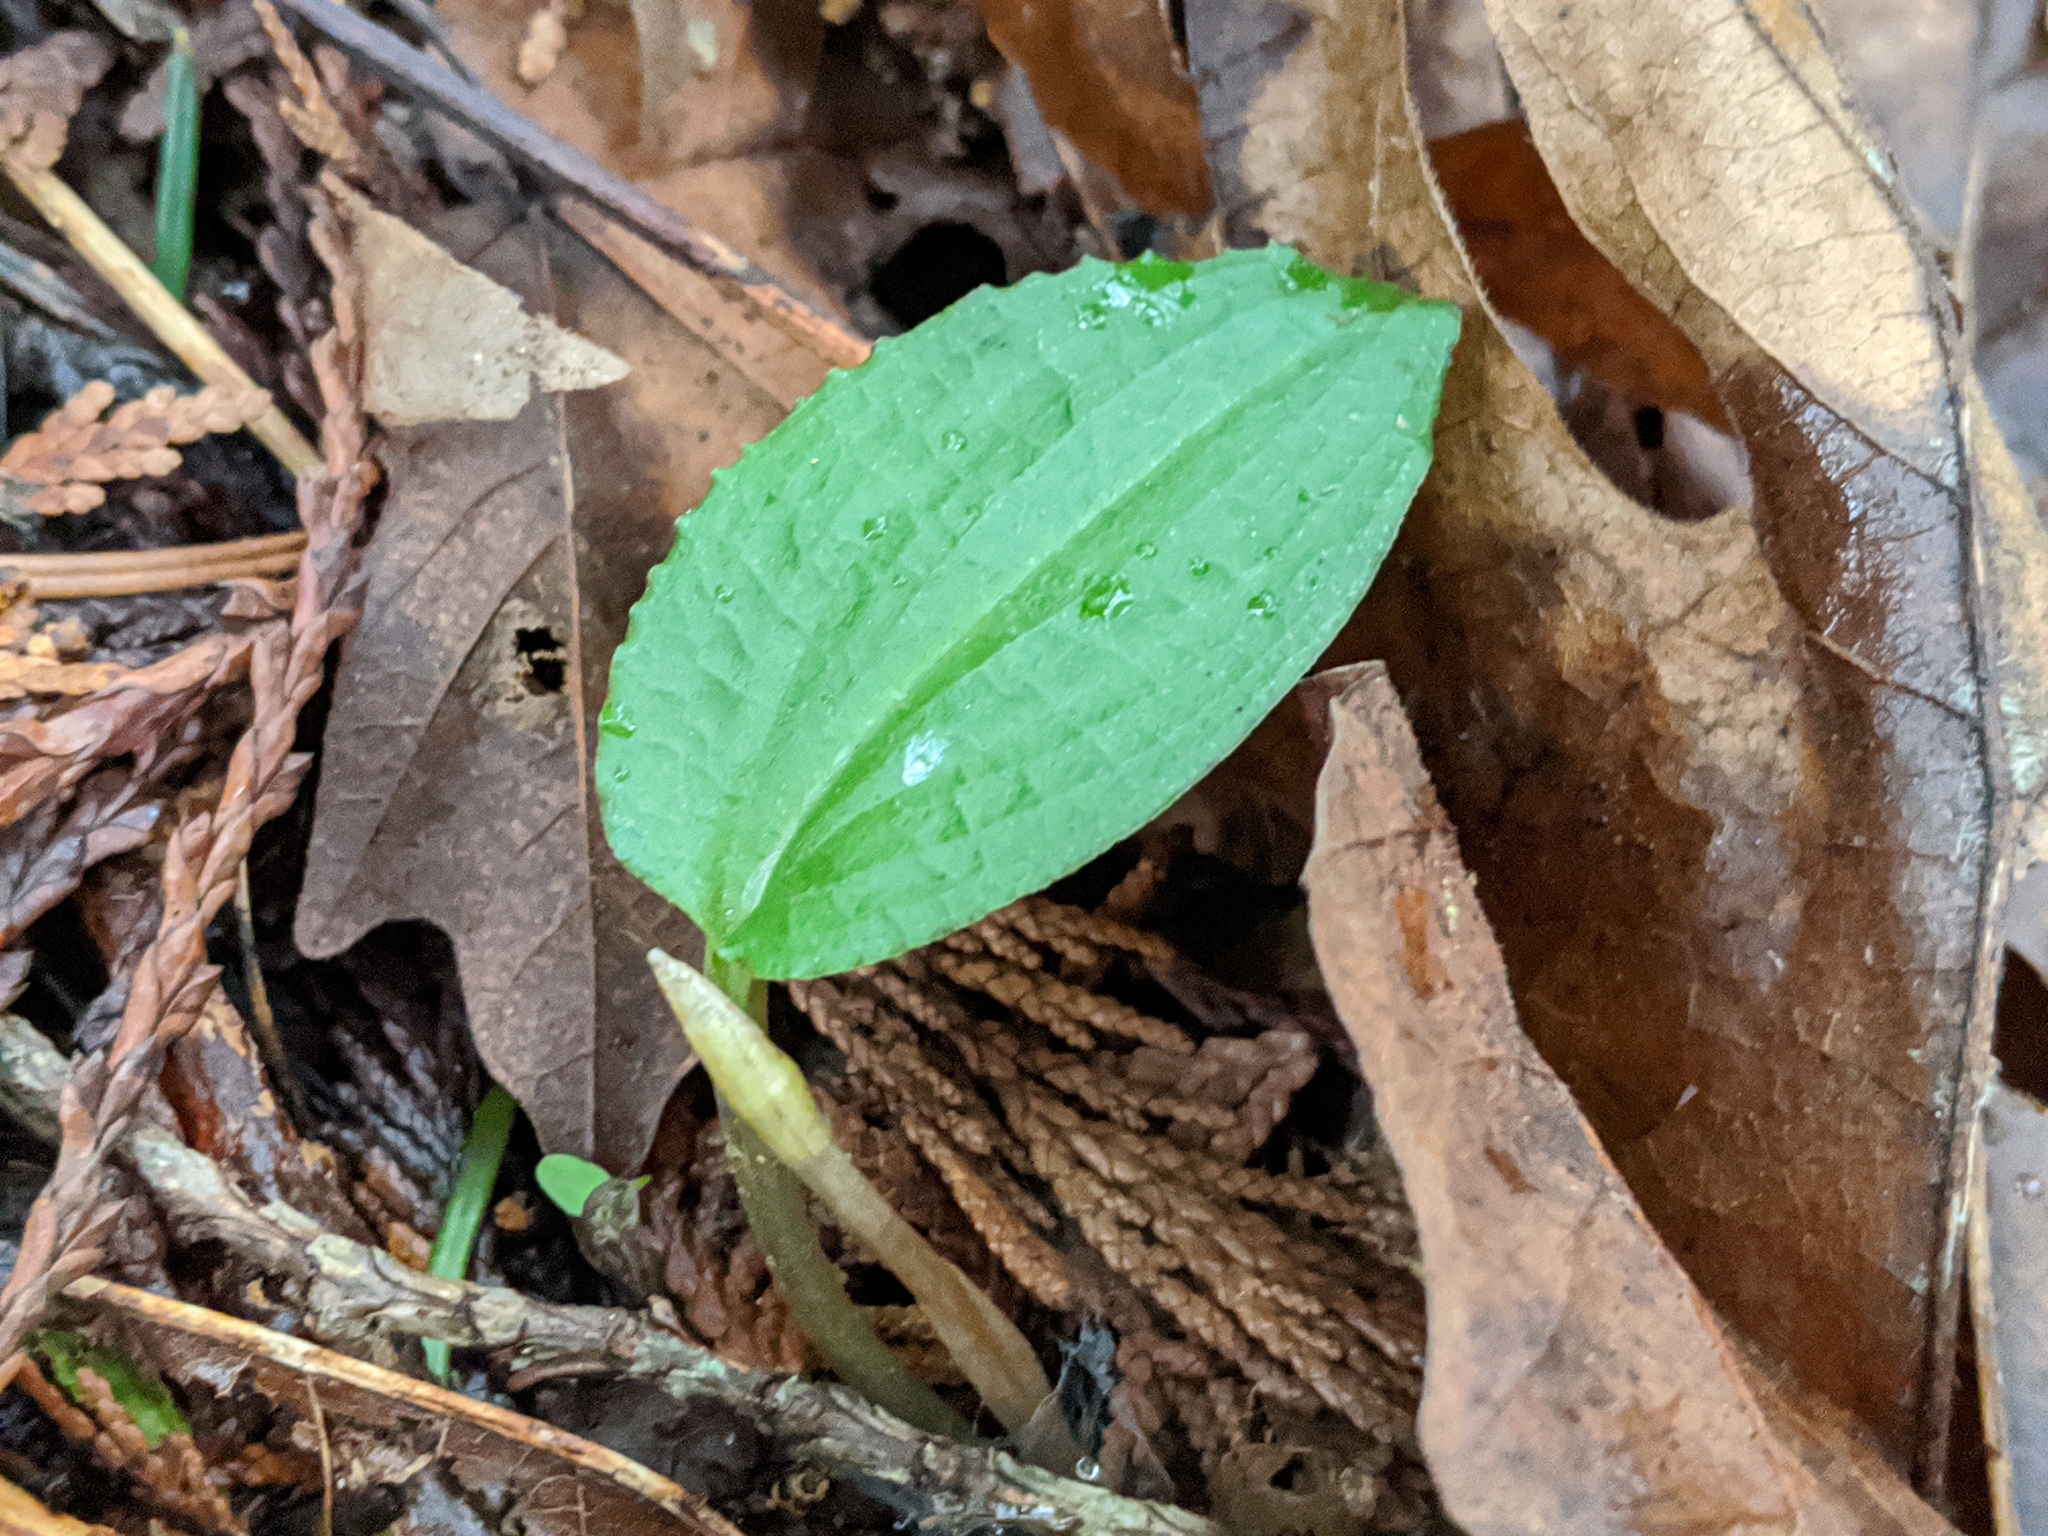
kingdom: Plantae
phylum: Tracheophyta
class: Liliopsida
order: Asparagales
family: Orchidaceae
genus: Calypso
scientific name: Calypso bulbosa
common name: Calypso
